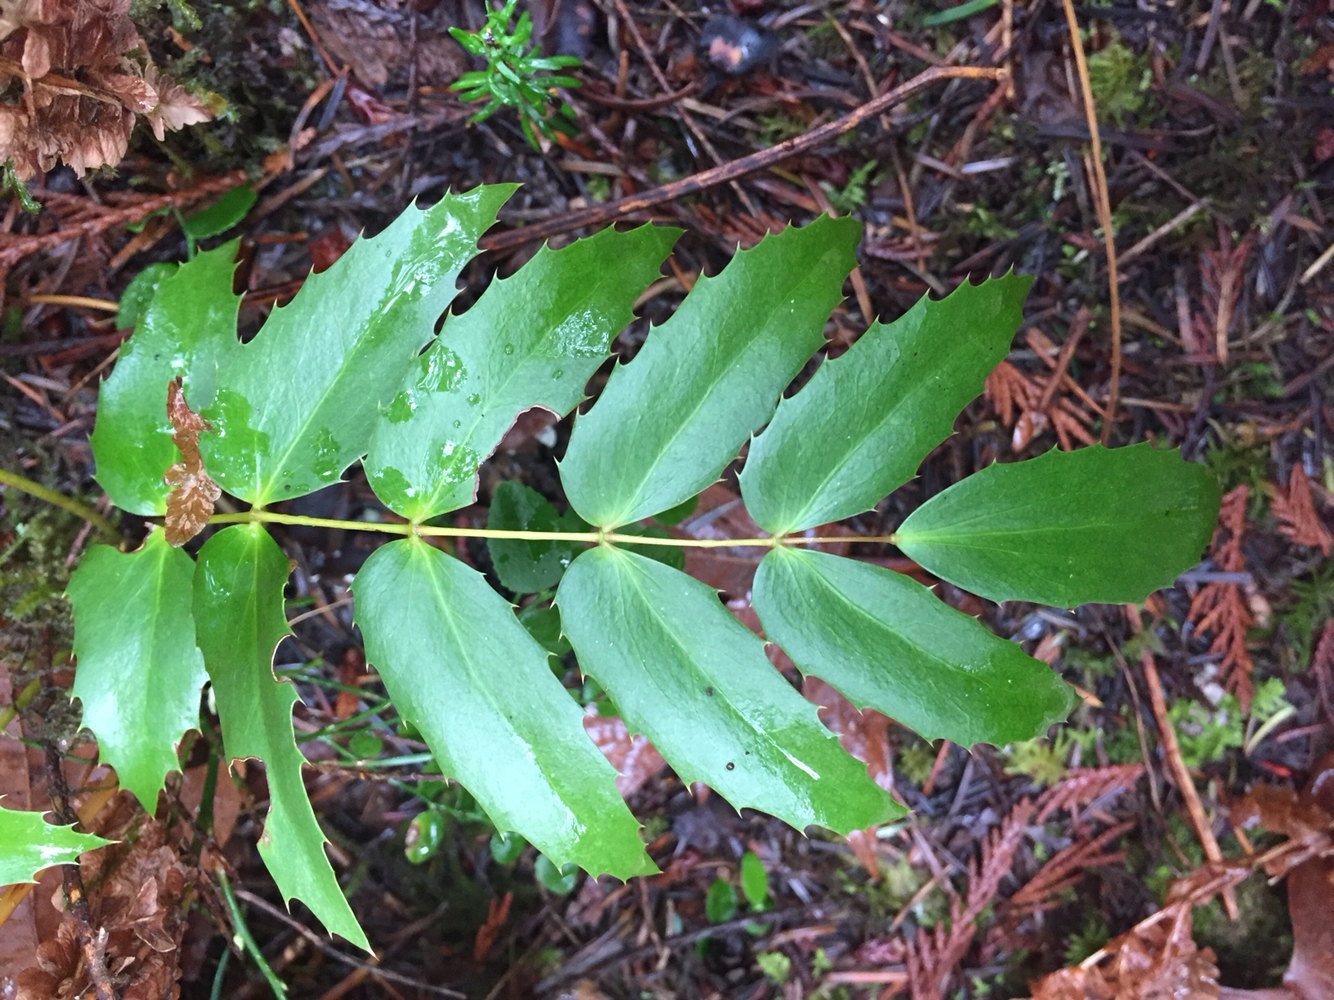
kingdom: Plantae
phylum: Tracheophyta
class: Magnoliopsida
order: Ranunculales
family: Berberidaceae
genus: Mahonia
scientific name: Mahonia nervosa
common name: Cascade oregon-grape
